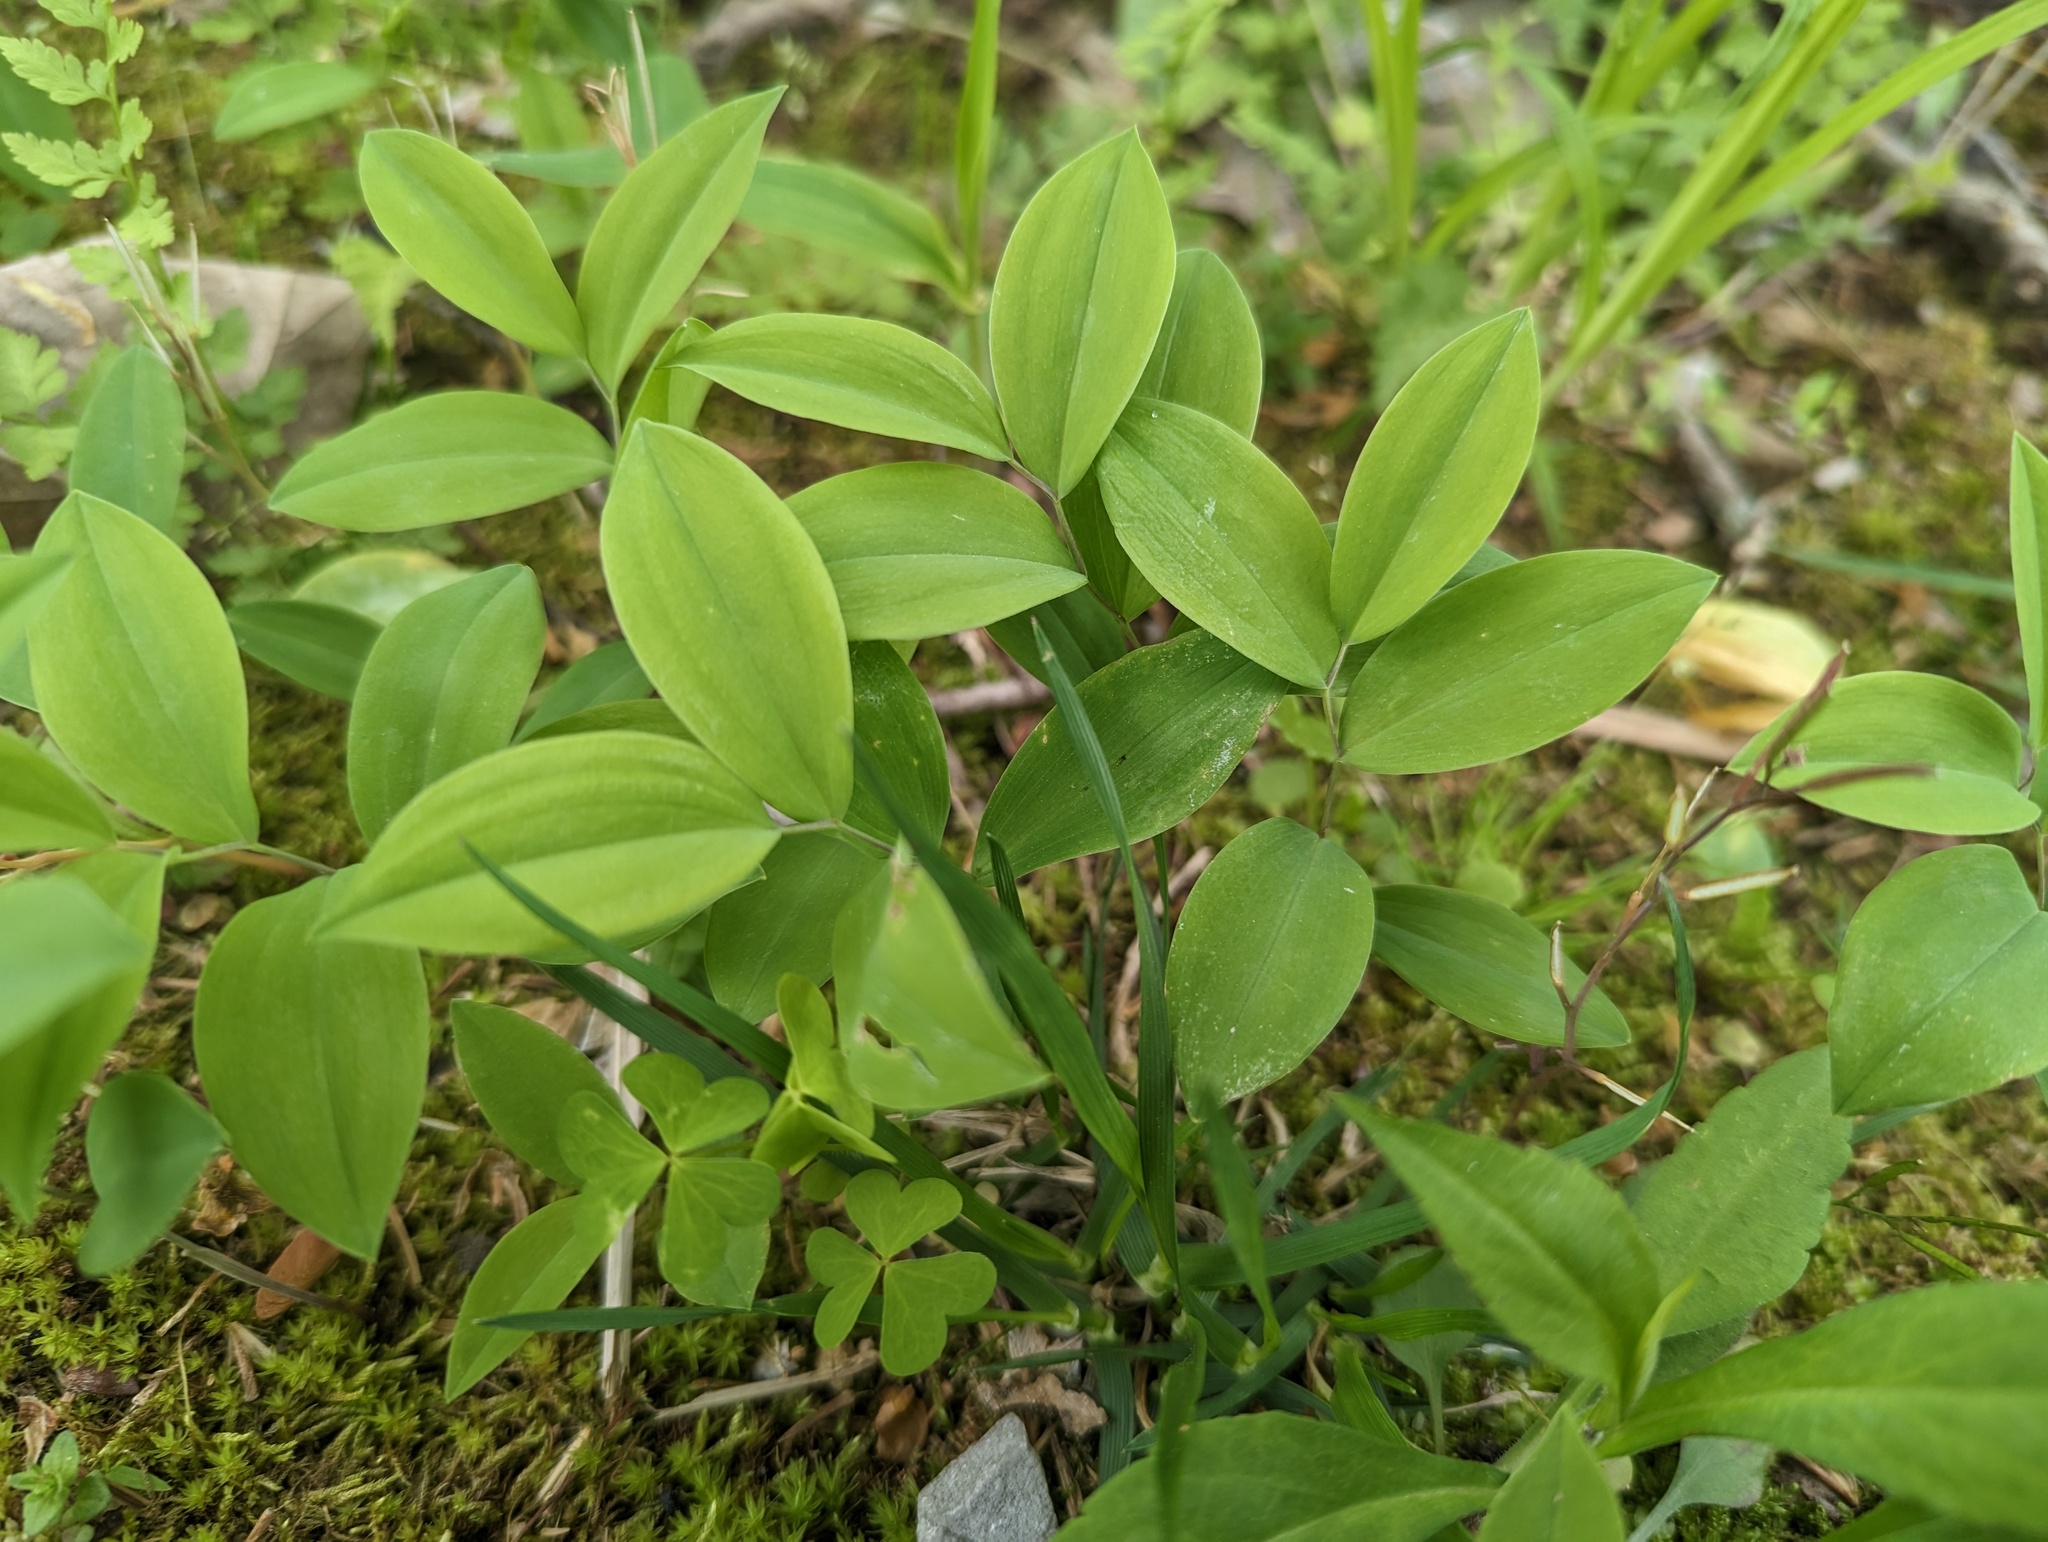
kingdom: Plantae
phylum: Tracheophyta
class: Liliopsida
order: Liliales
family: Colchicaceae
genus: Uvularia
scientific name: Uvularia sessilifolia
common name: Straw-lily
